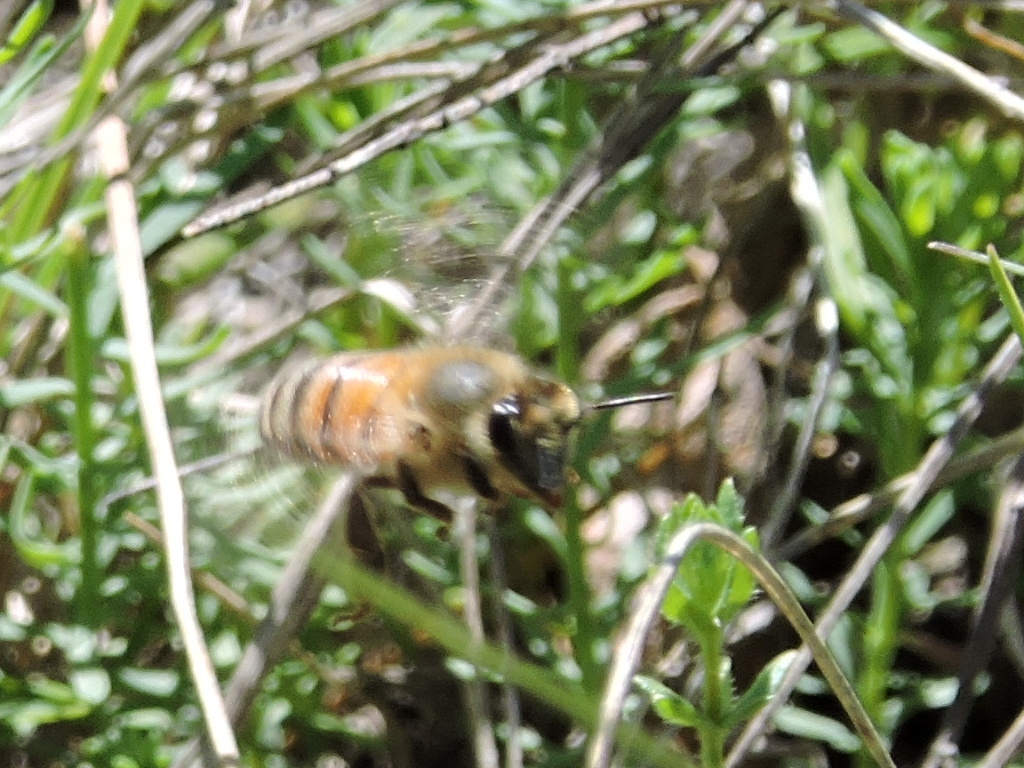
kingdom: Animalia
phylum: Arthropoda
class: Insecta
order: Hymenoptera
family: Apidae
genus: Apis
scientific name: Apis mellifera
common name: Honey bee
